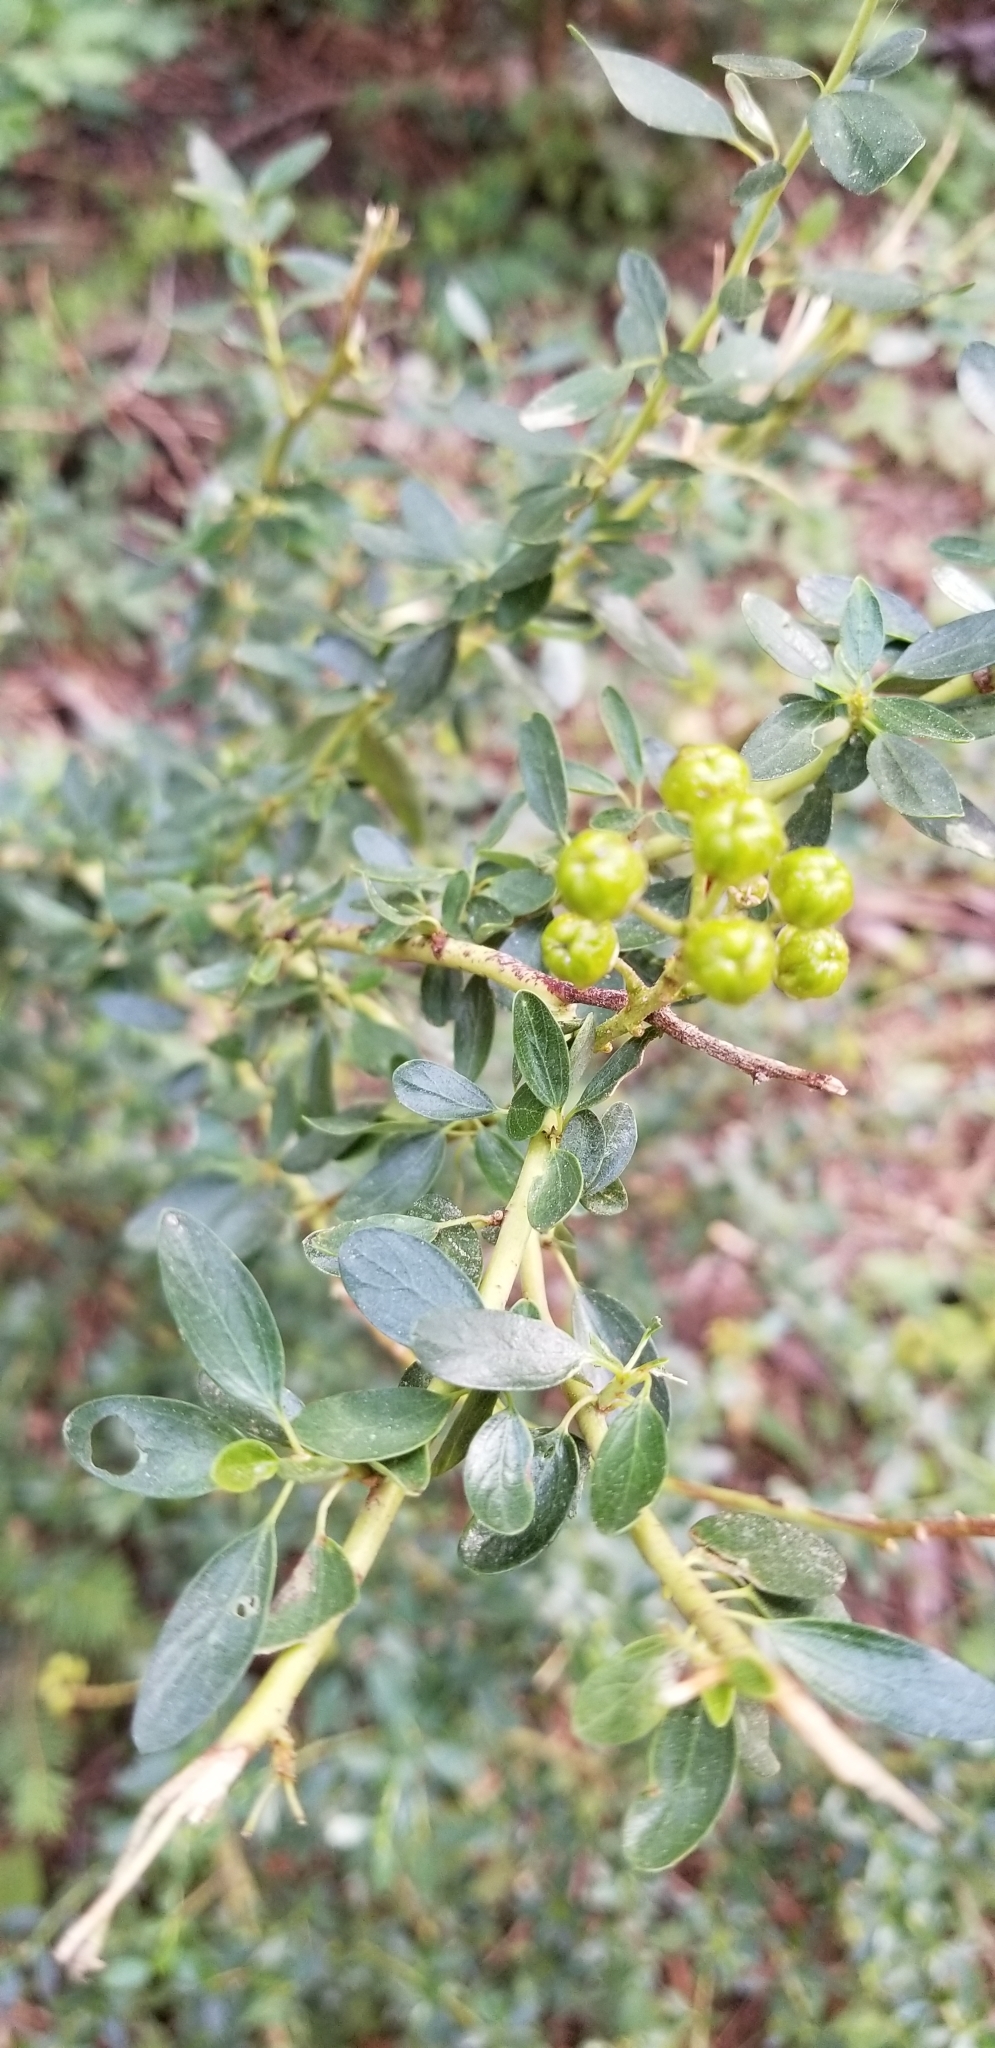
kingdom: Plantae
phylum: Tracheophyta
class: Magnoliopsida
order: Rosales
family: Rhamnaceae
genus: Ceanothus
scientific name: Ceanothus parvifolius
